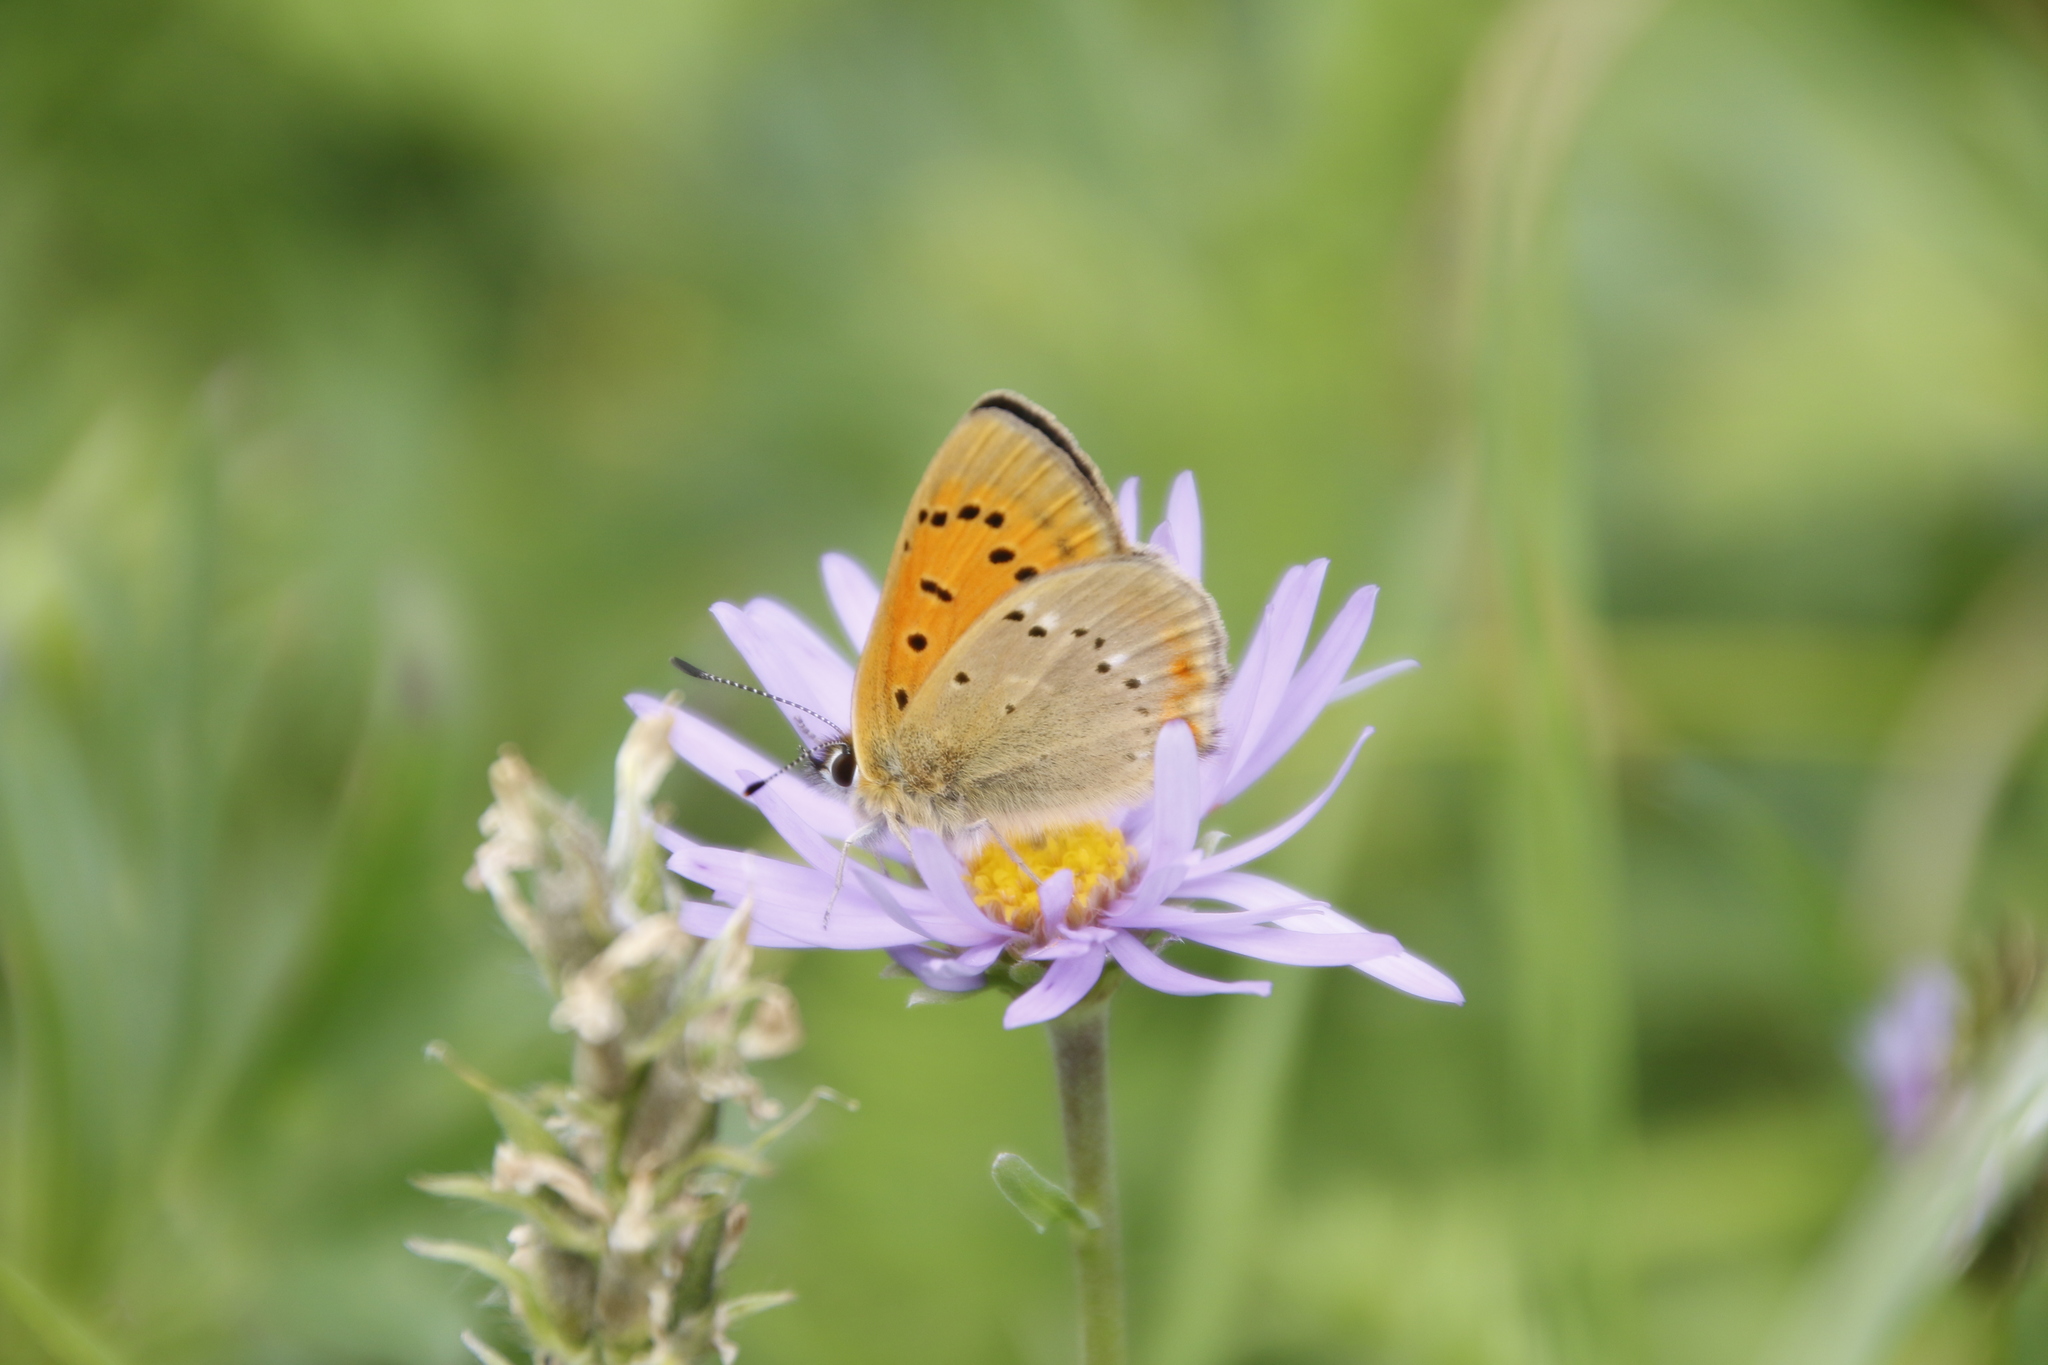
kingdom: Animalia
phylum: Arthropoda
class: Insecta
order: Lepidoptera
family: Lycaenidae
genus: Lycaena
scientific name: Lycaena virgaureae
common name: Scarce copper
